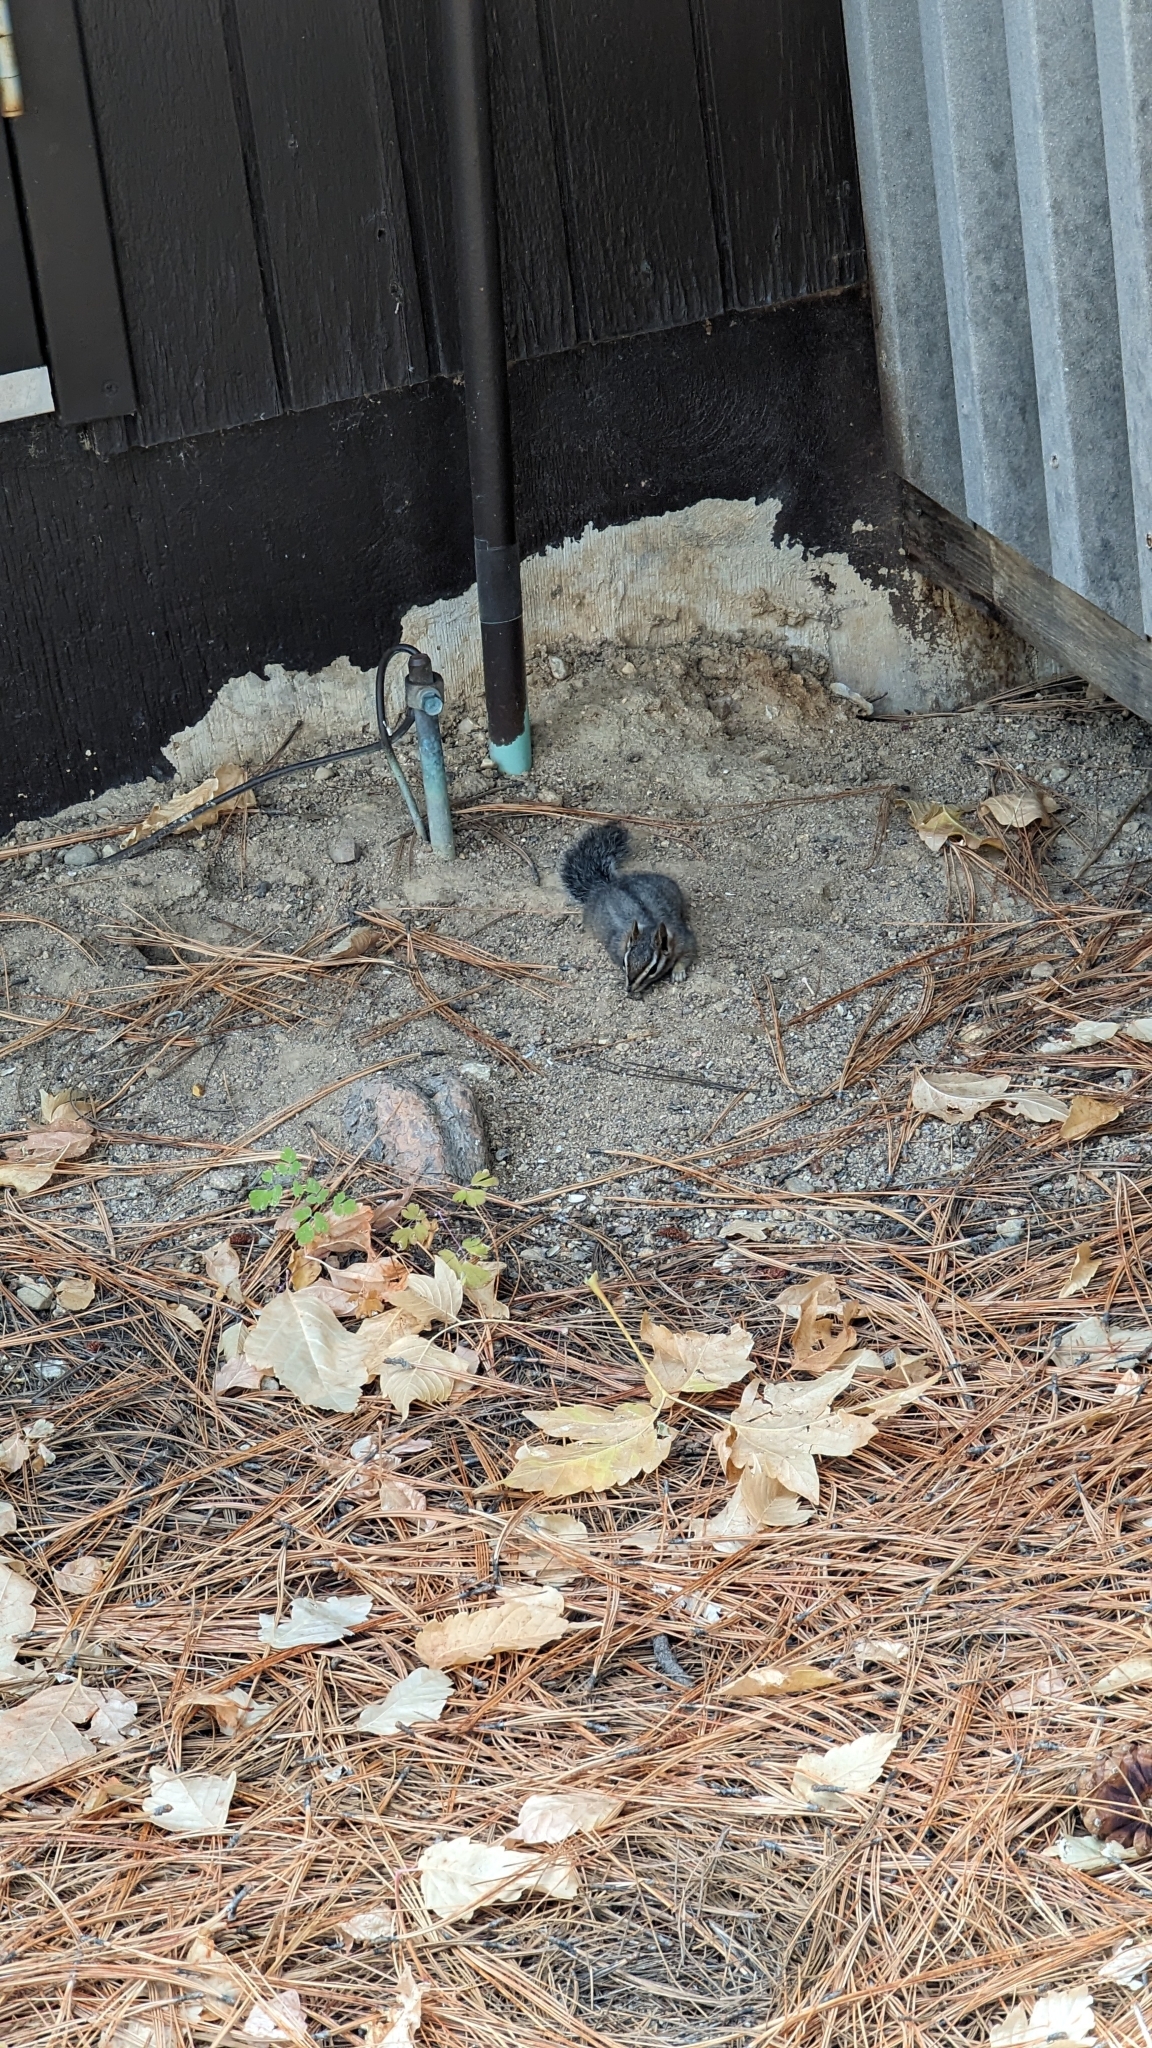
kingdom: Animalia
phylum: Chordata
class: Mammalia
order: Rodentia
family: Sciuridae
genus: Tamias
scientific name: Tamias dorsalis
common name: Cliff chipmunk
